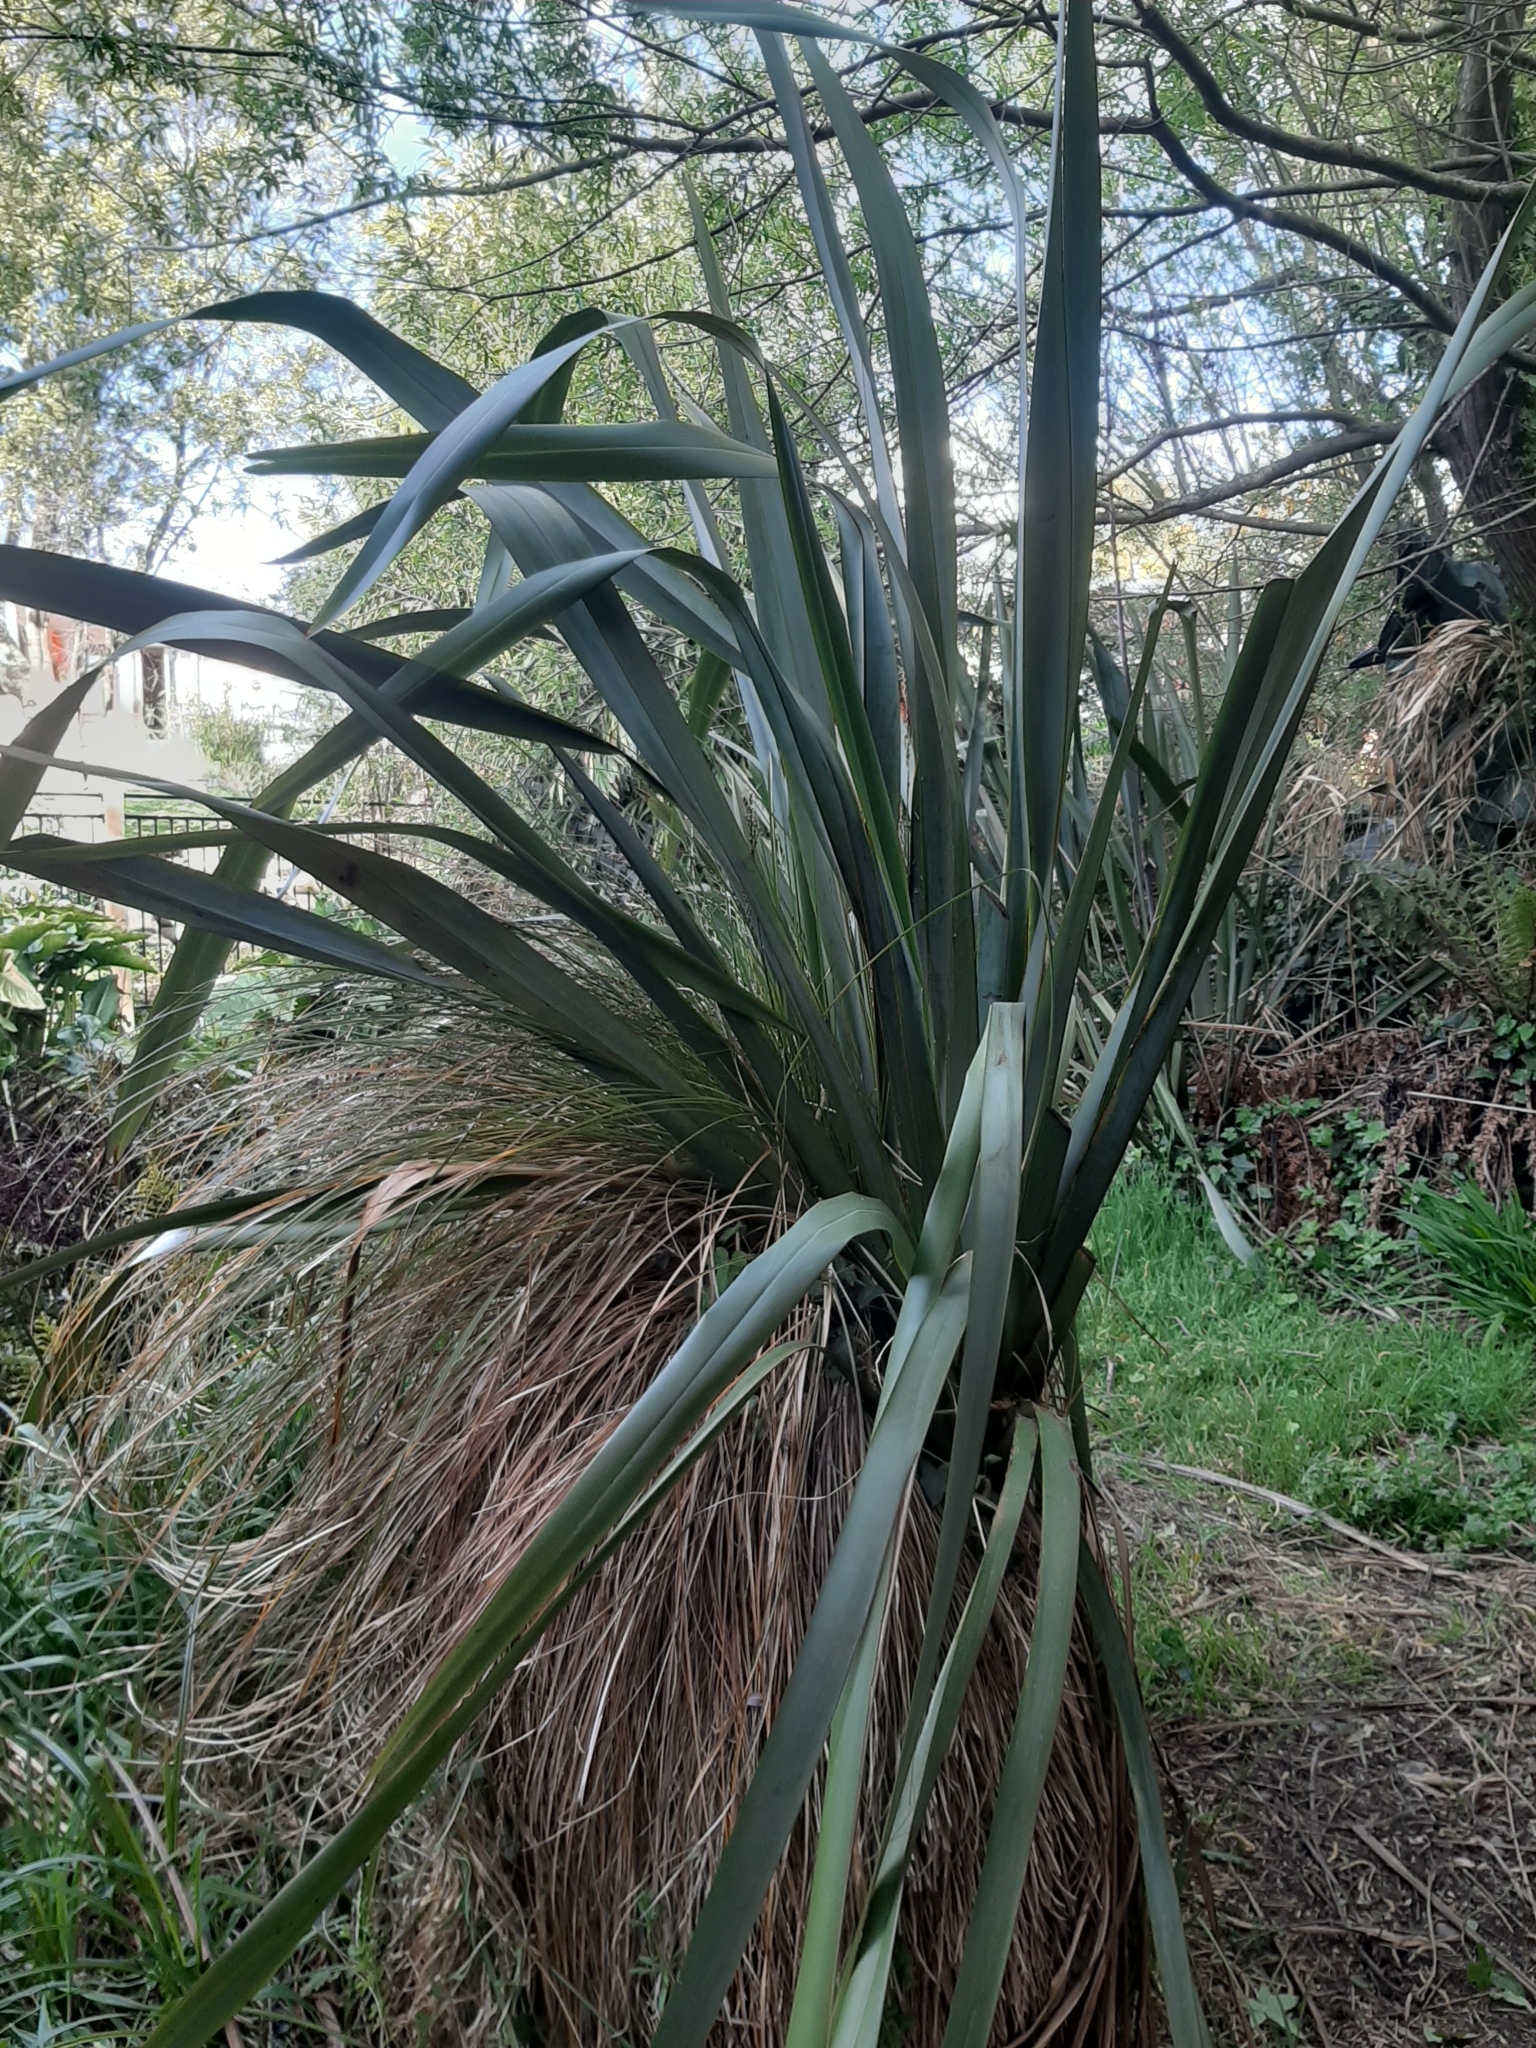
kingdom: Plantae
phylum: Tracheophyta
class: Liliopsida
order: Asparagales
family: Asphodelaceae
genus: Phormium
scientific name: Phormium tenax
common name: New zealand flax
